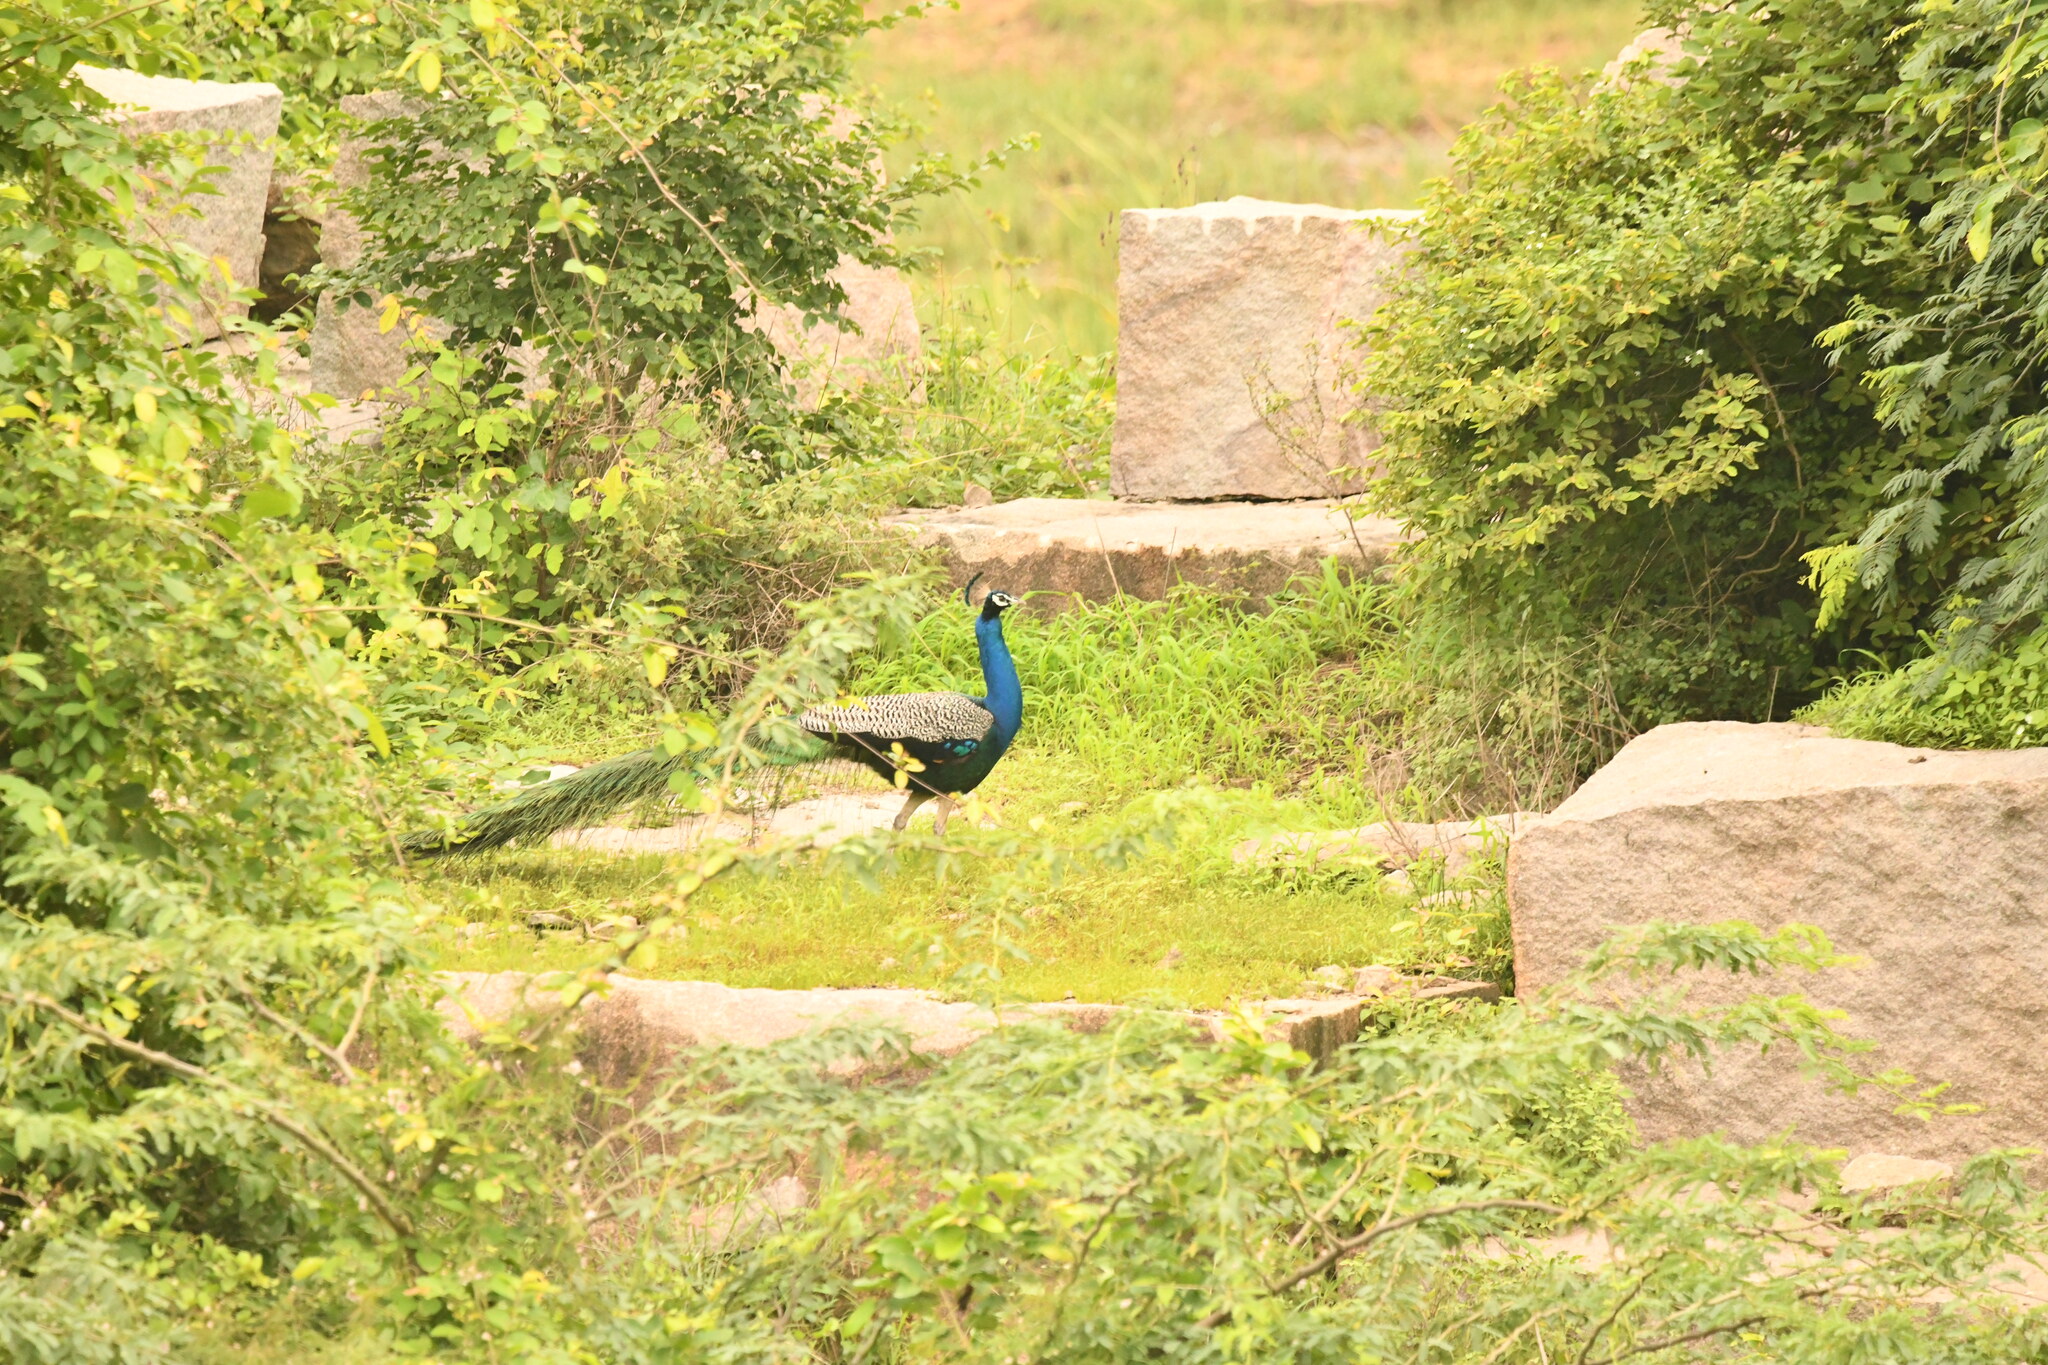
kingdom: Animalia
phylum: Chordata
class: Aves
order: Galliformes
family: Phasianidae
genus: Pavo
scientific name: Pavo cristatus
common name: Indian peafowl
